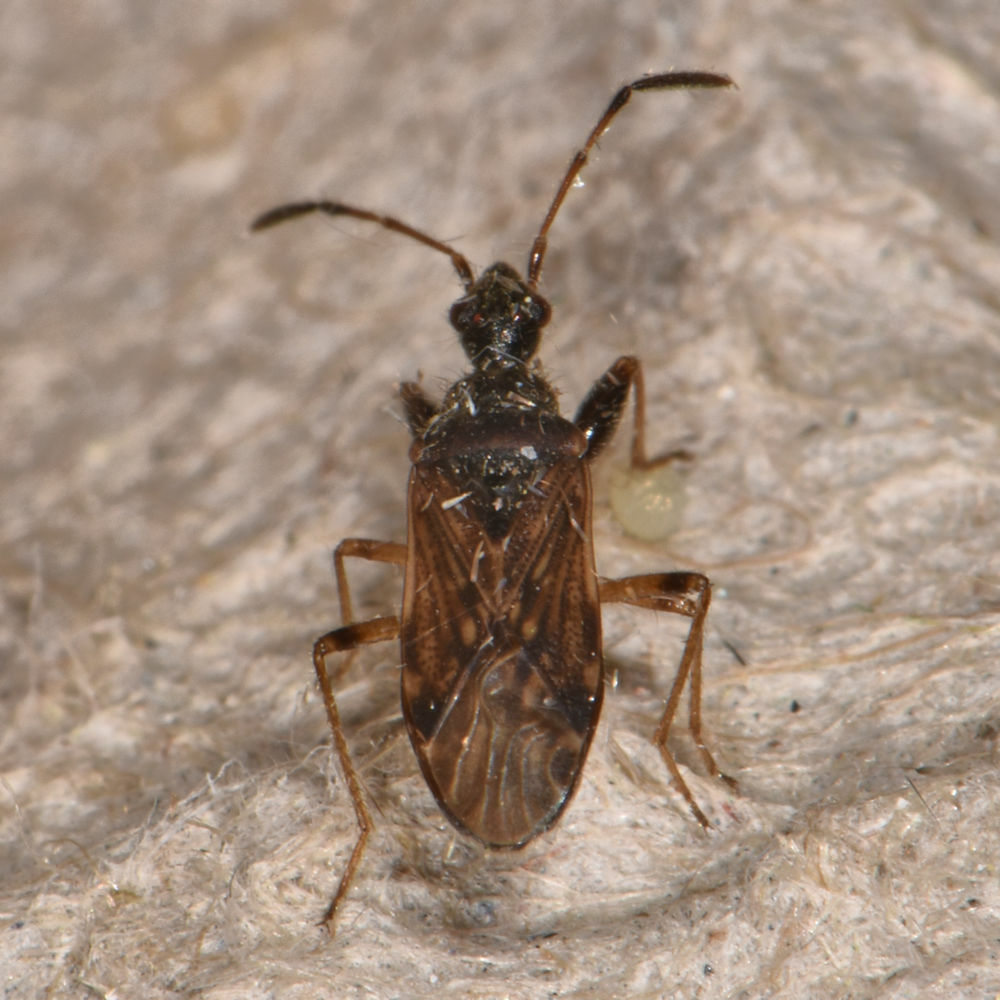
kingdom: Animalia
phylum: Arthropoda
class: Insecta
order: Hemiptera
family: Rhyparochromidae
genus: Heraeus
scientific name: Heraeus plebejus
